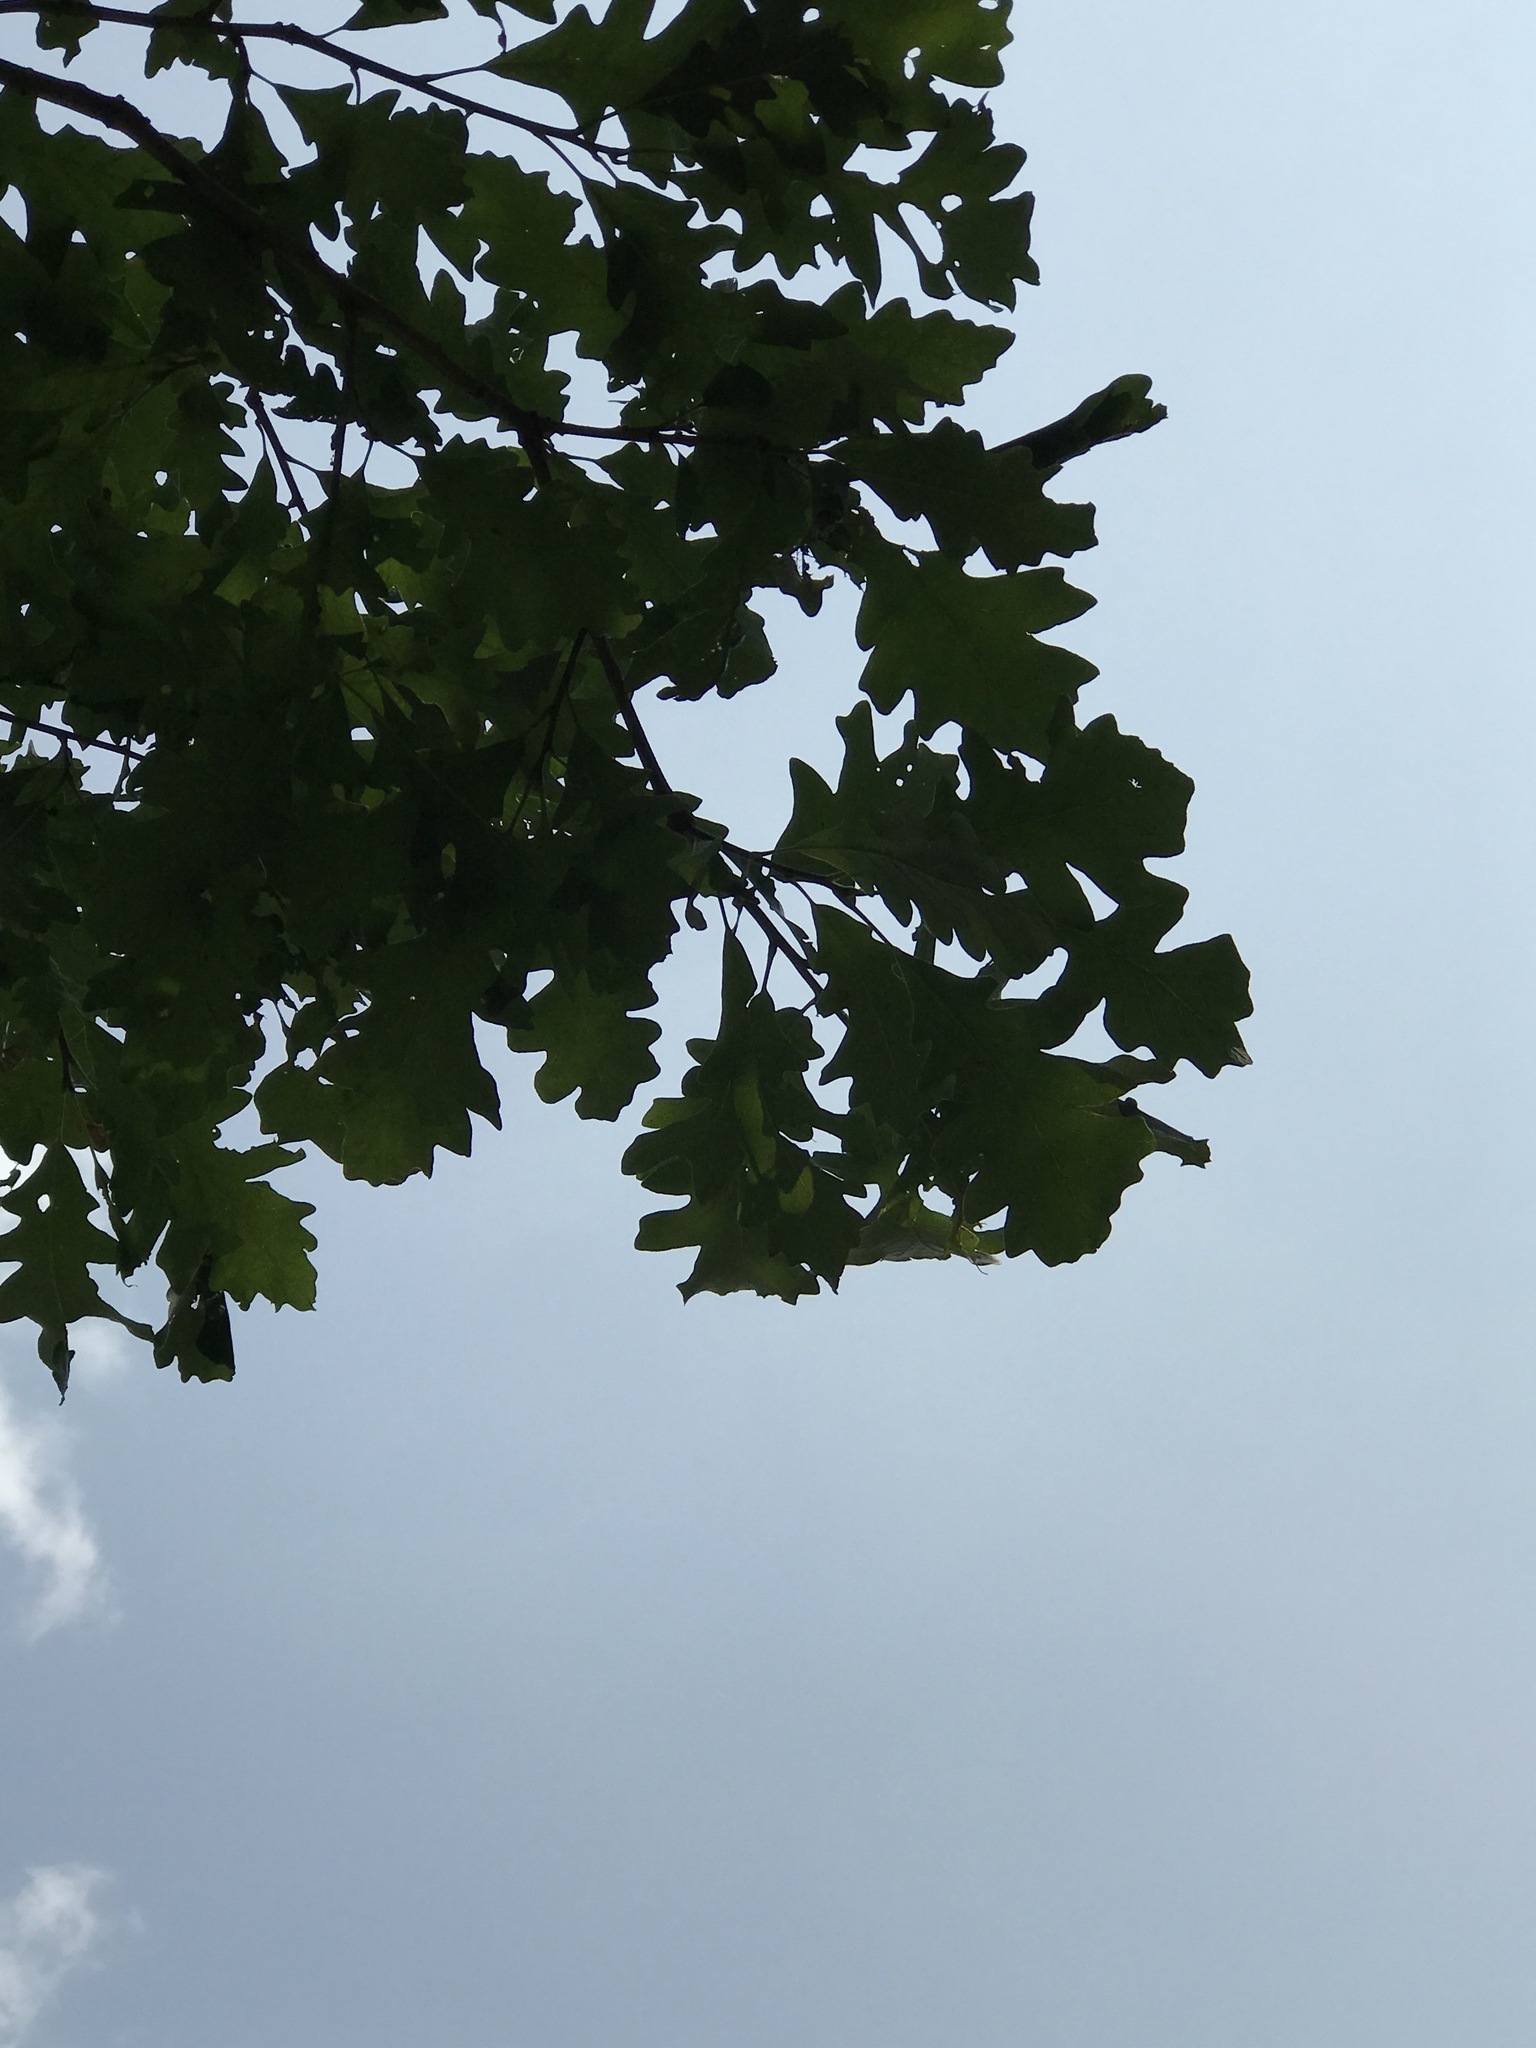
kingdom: Plantae
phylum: Tracheophyta
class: Magnoliopsida
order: Fagales
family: Fagaceae
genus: Quercus
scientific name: Quercus macrocarpa
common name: Bur oak
